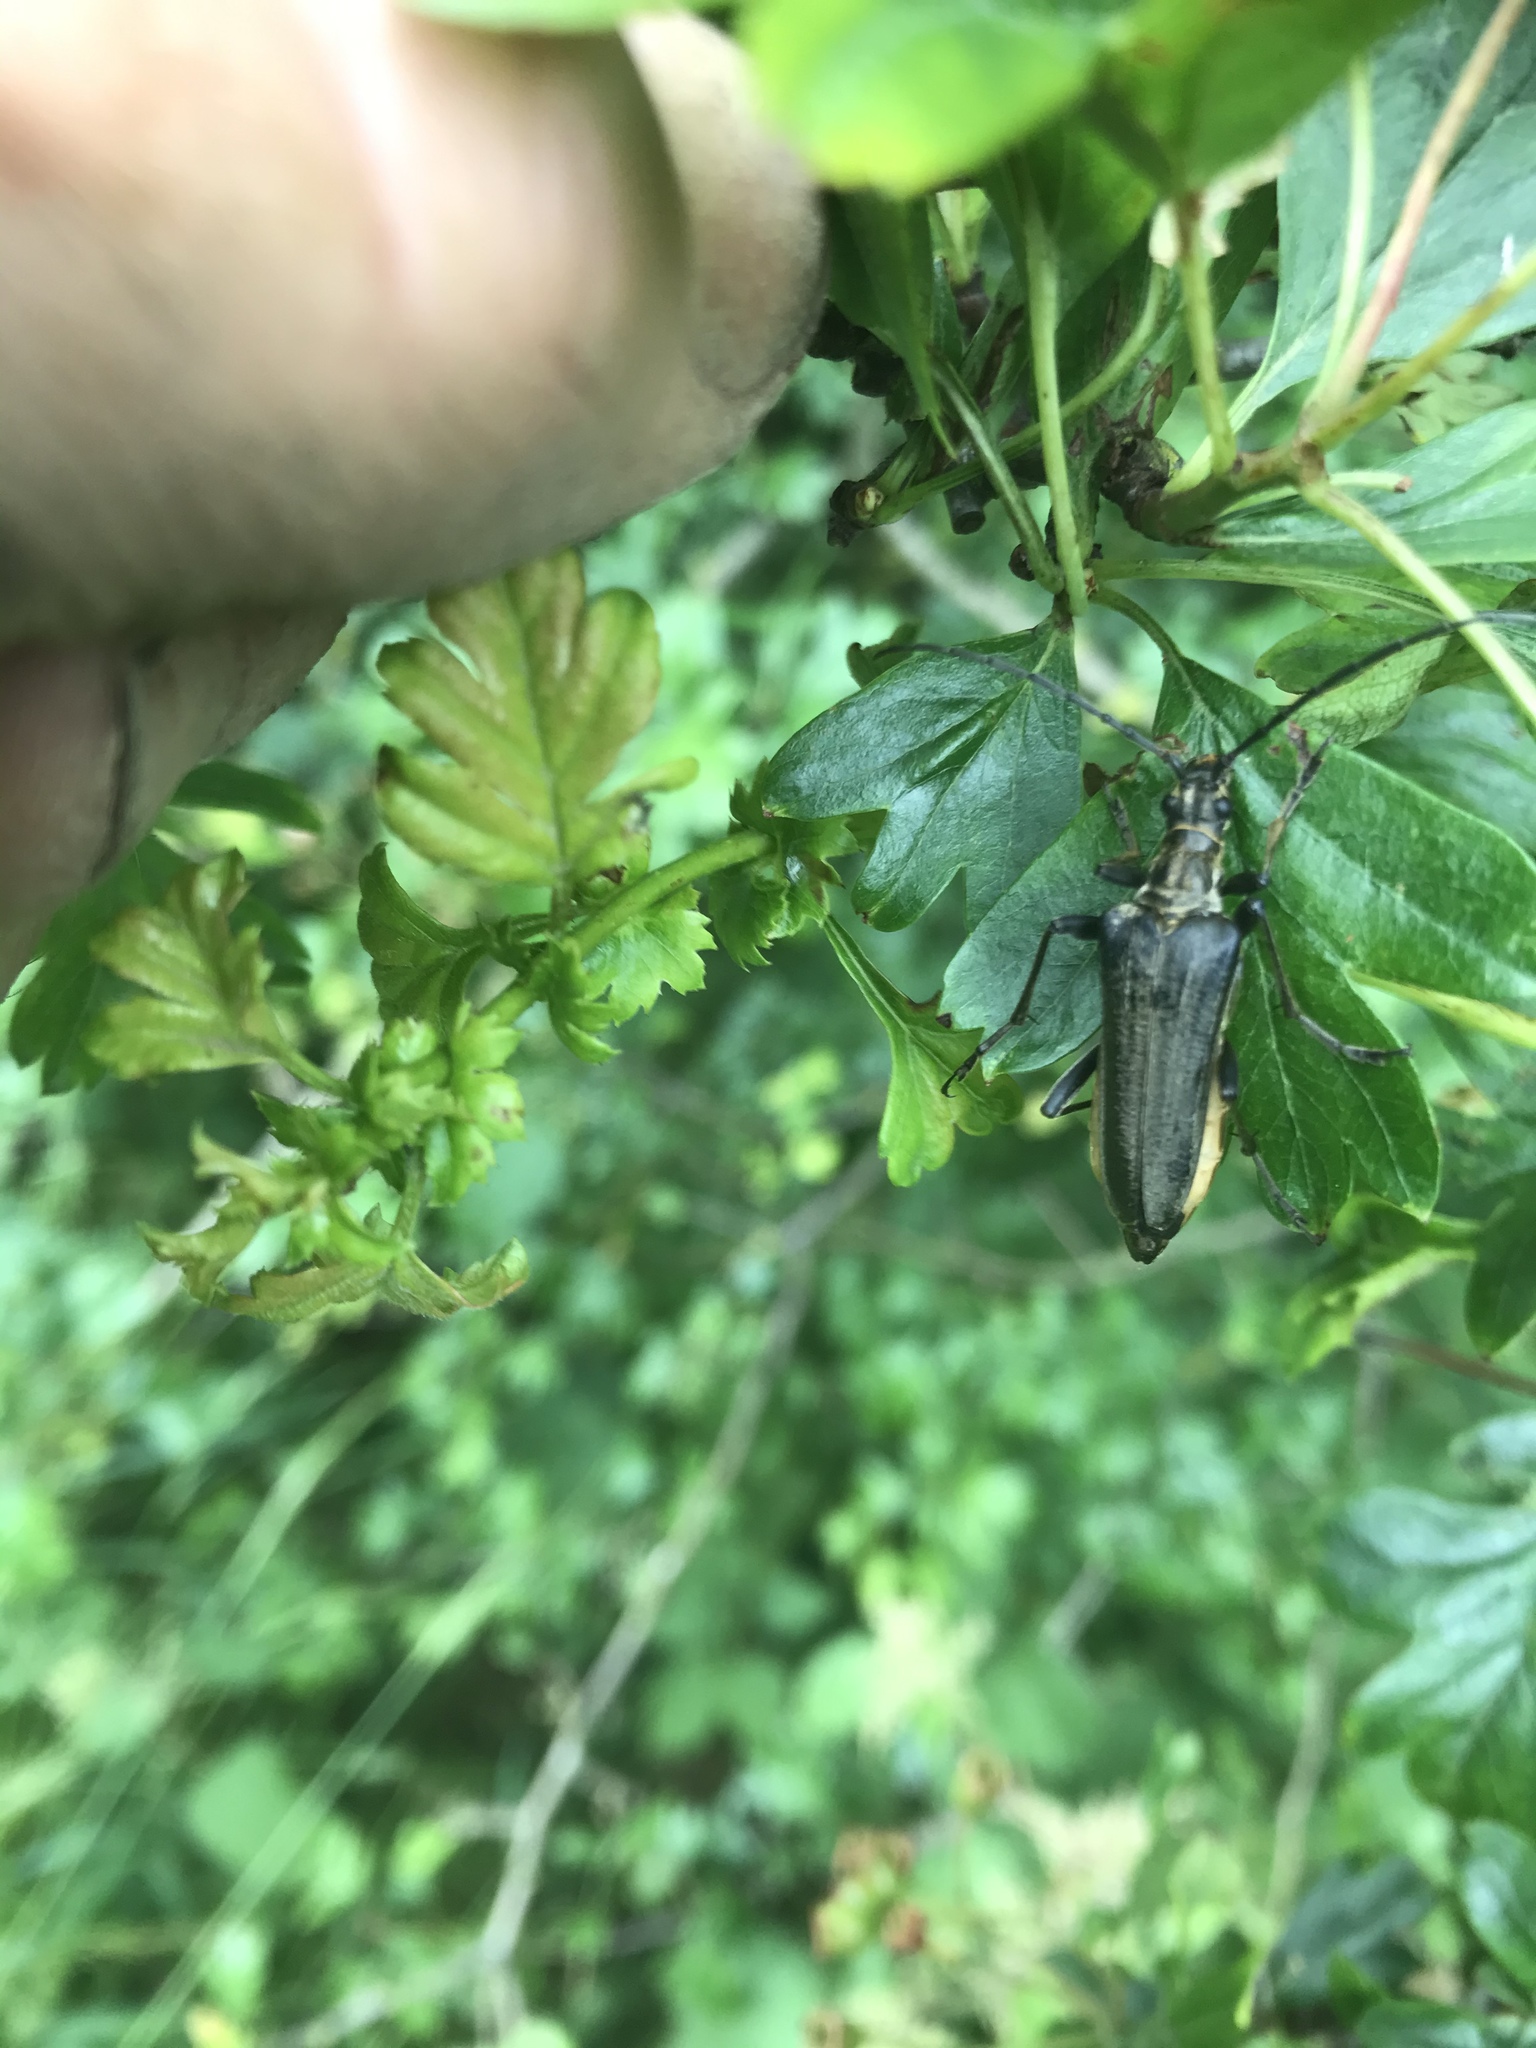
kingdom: Animalia
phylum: Arthropoda
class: Insecta
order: Coleoptera
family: Cerambycidae
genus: Stenocorus
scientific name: Stenocorus meridianus
